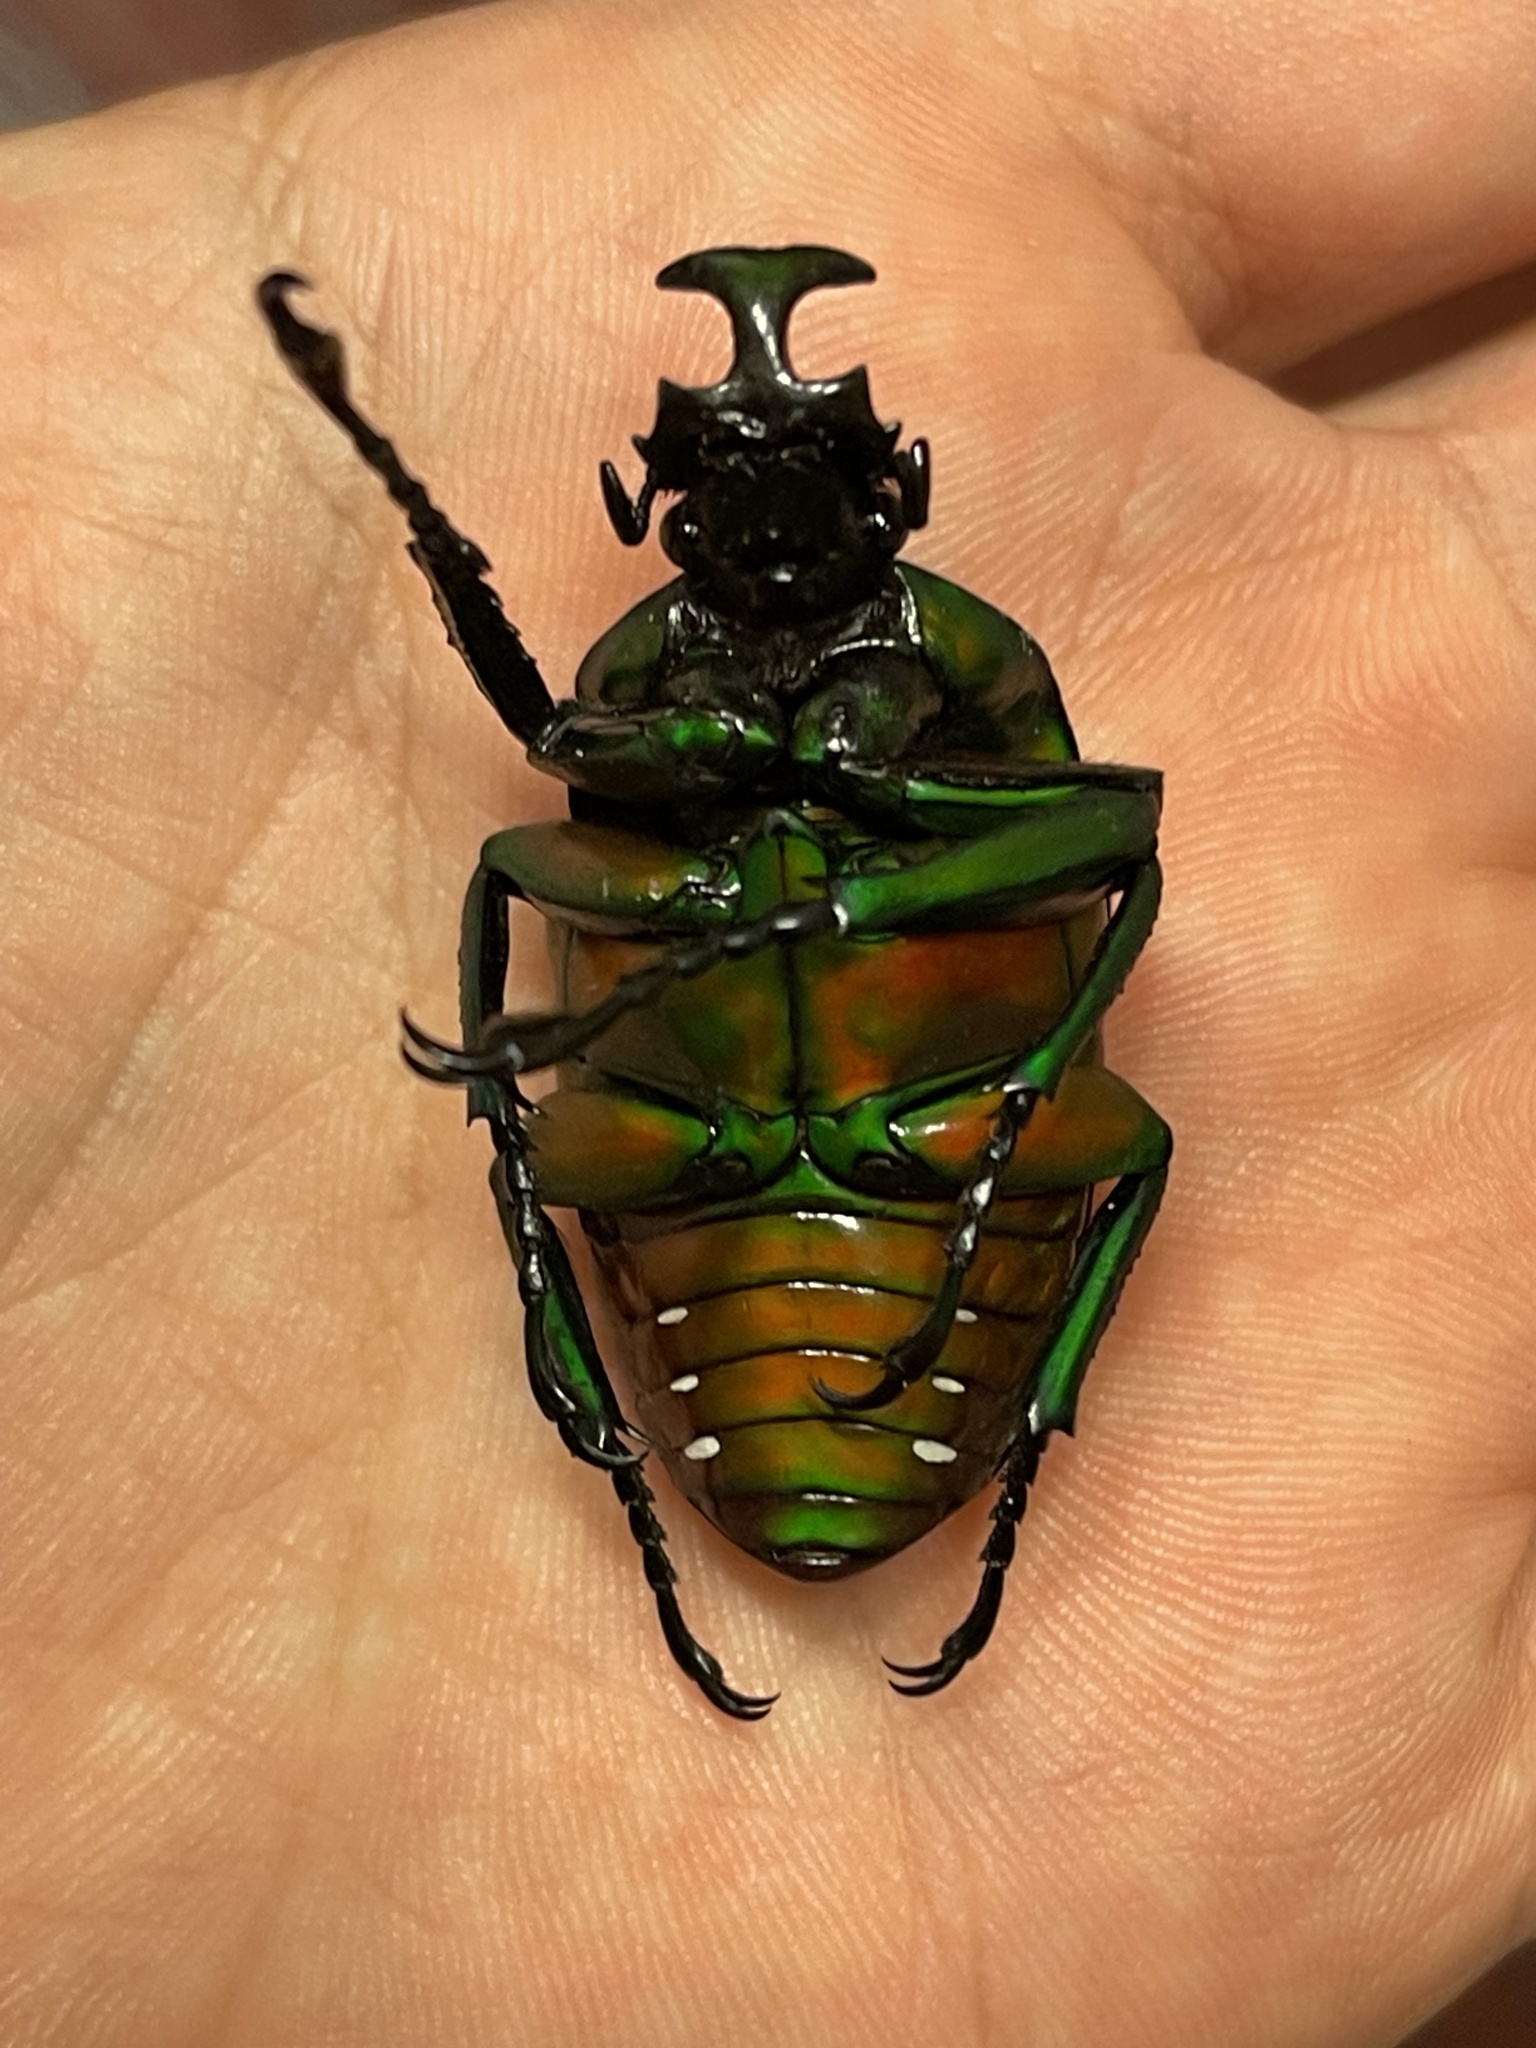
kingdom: Animalia
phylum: Arthropoda
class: Insecta
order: Coleoptera
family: Scarabaeidae
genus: Dicronorhina
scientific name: Dicronorhina derbyana
